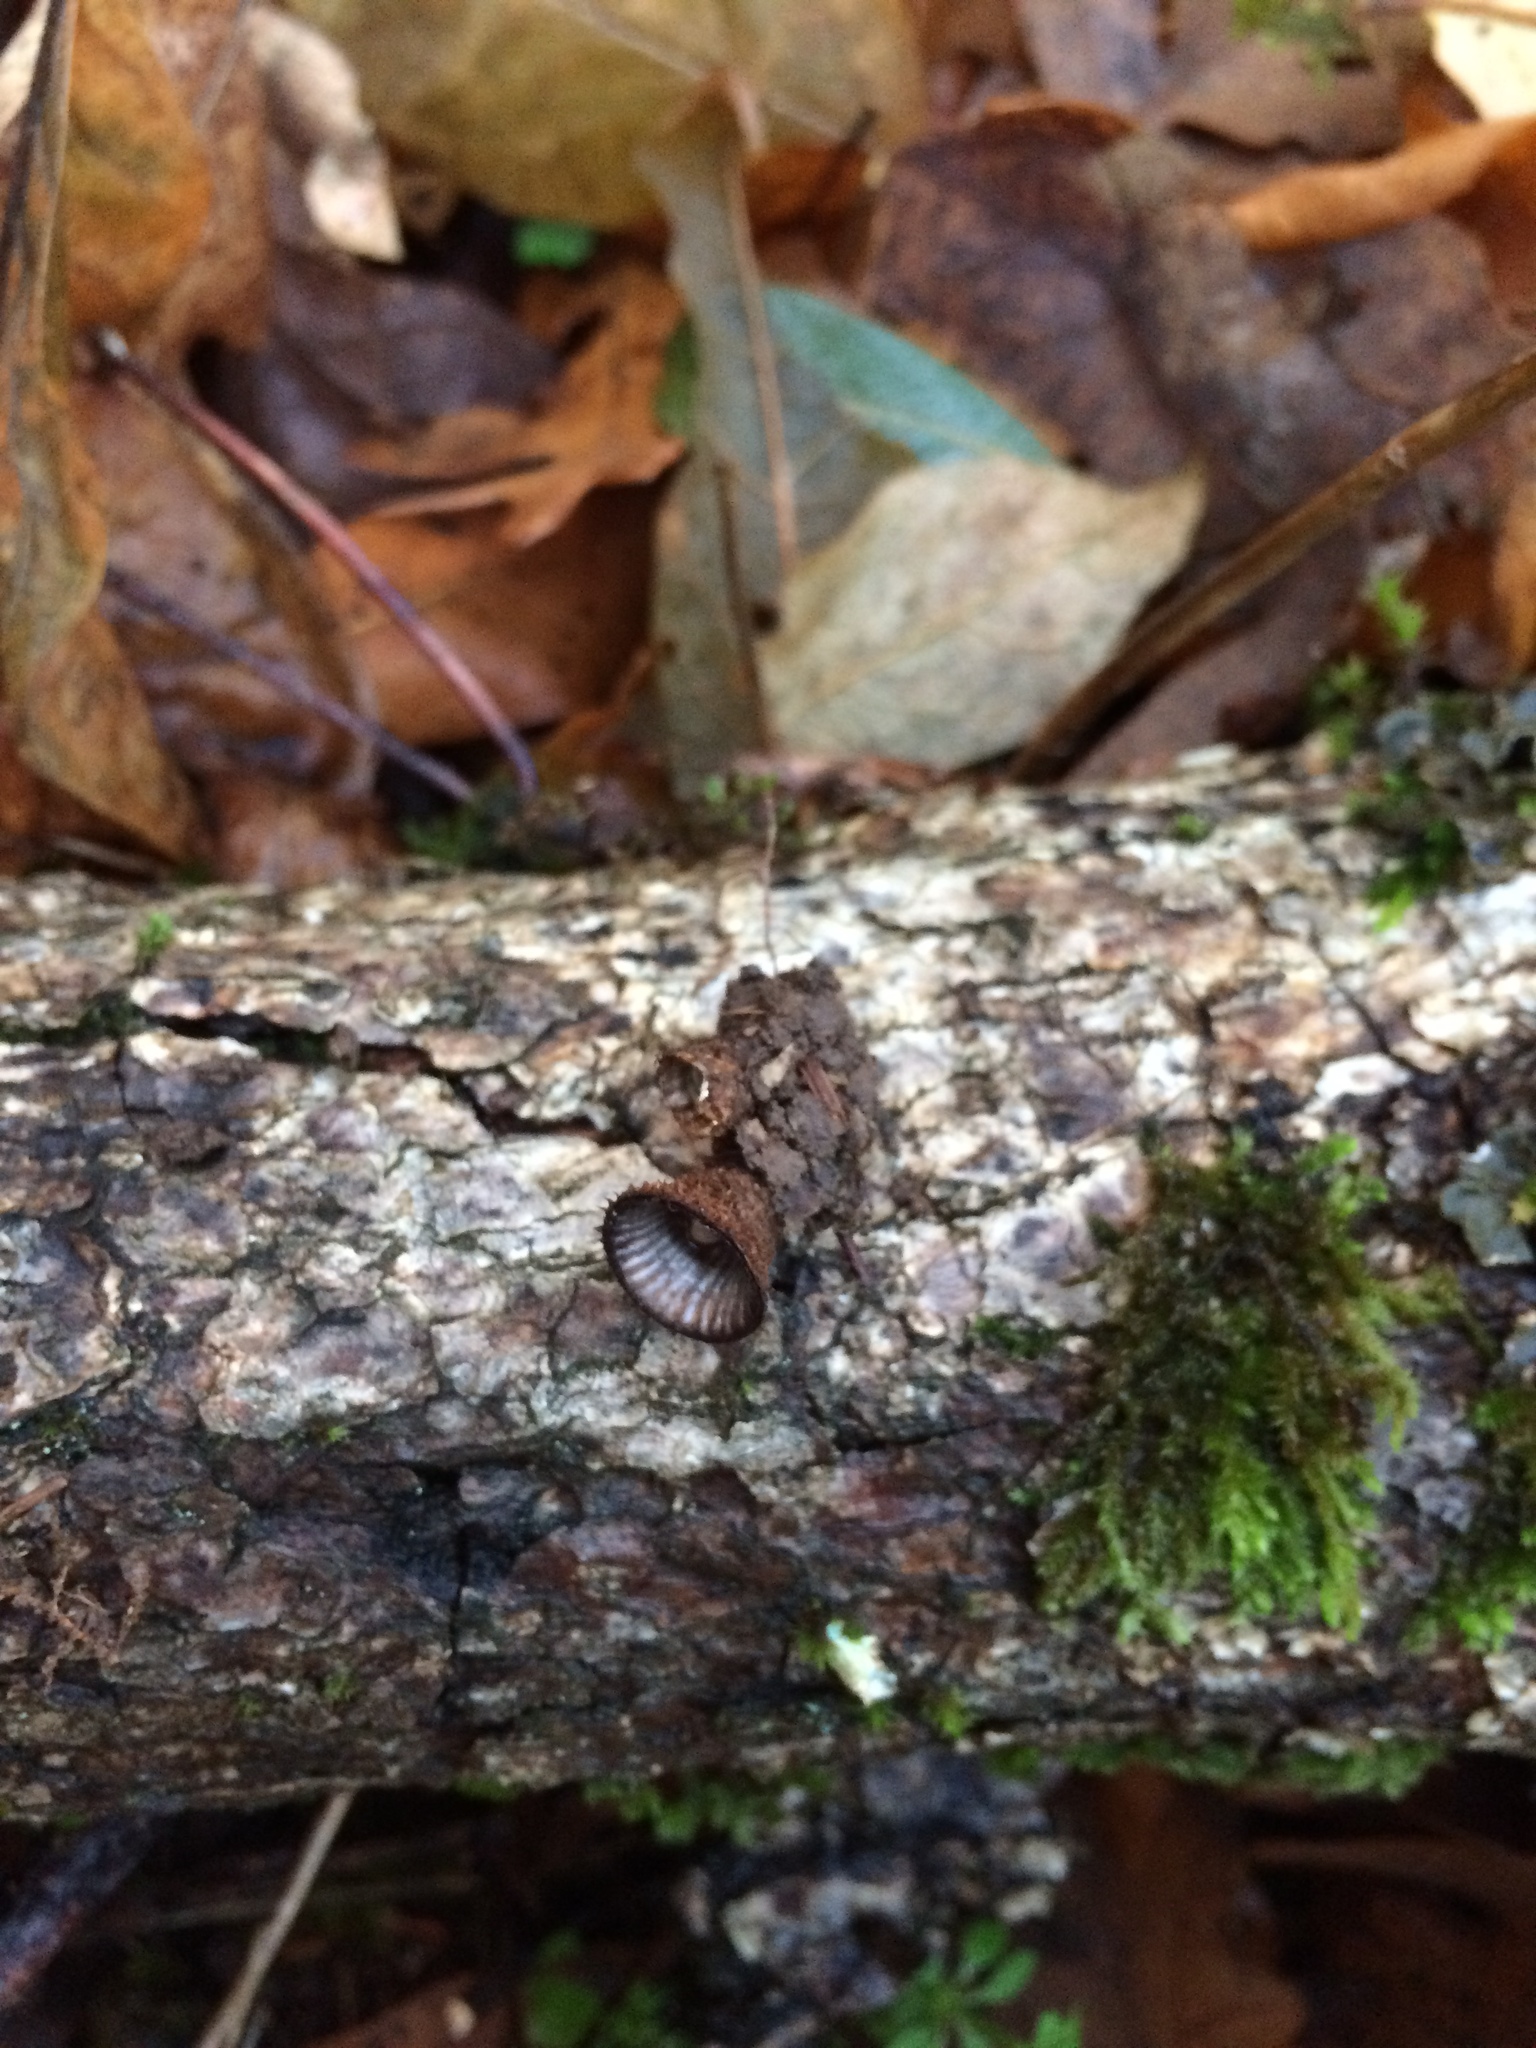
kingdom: Fungi
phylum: Basidiomycota
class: Agaricomycetes
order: Agaricales
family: Agaricaceae
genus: Cyathus
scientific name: Cyathus striatus
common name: Fluted bird's nest
